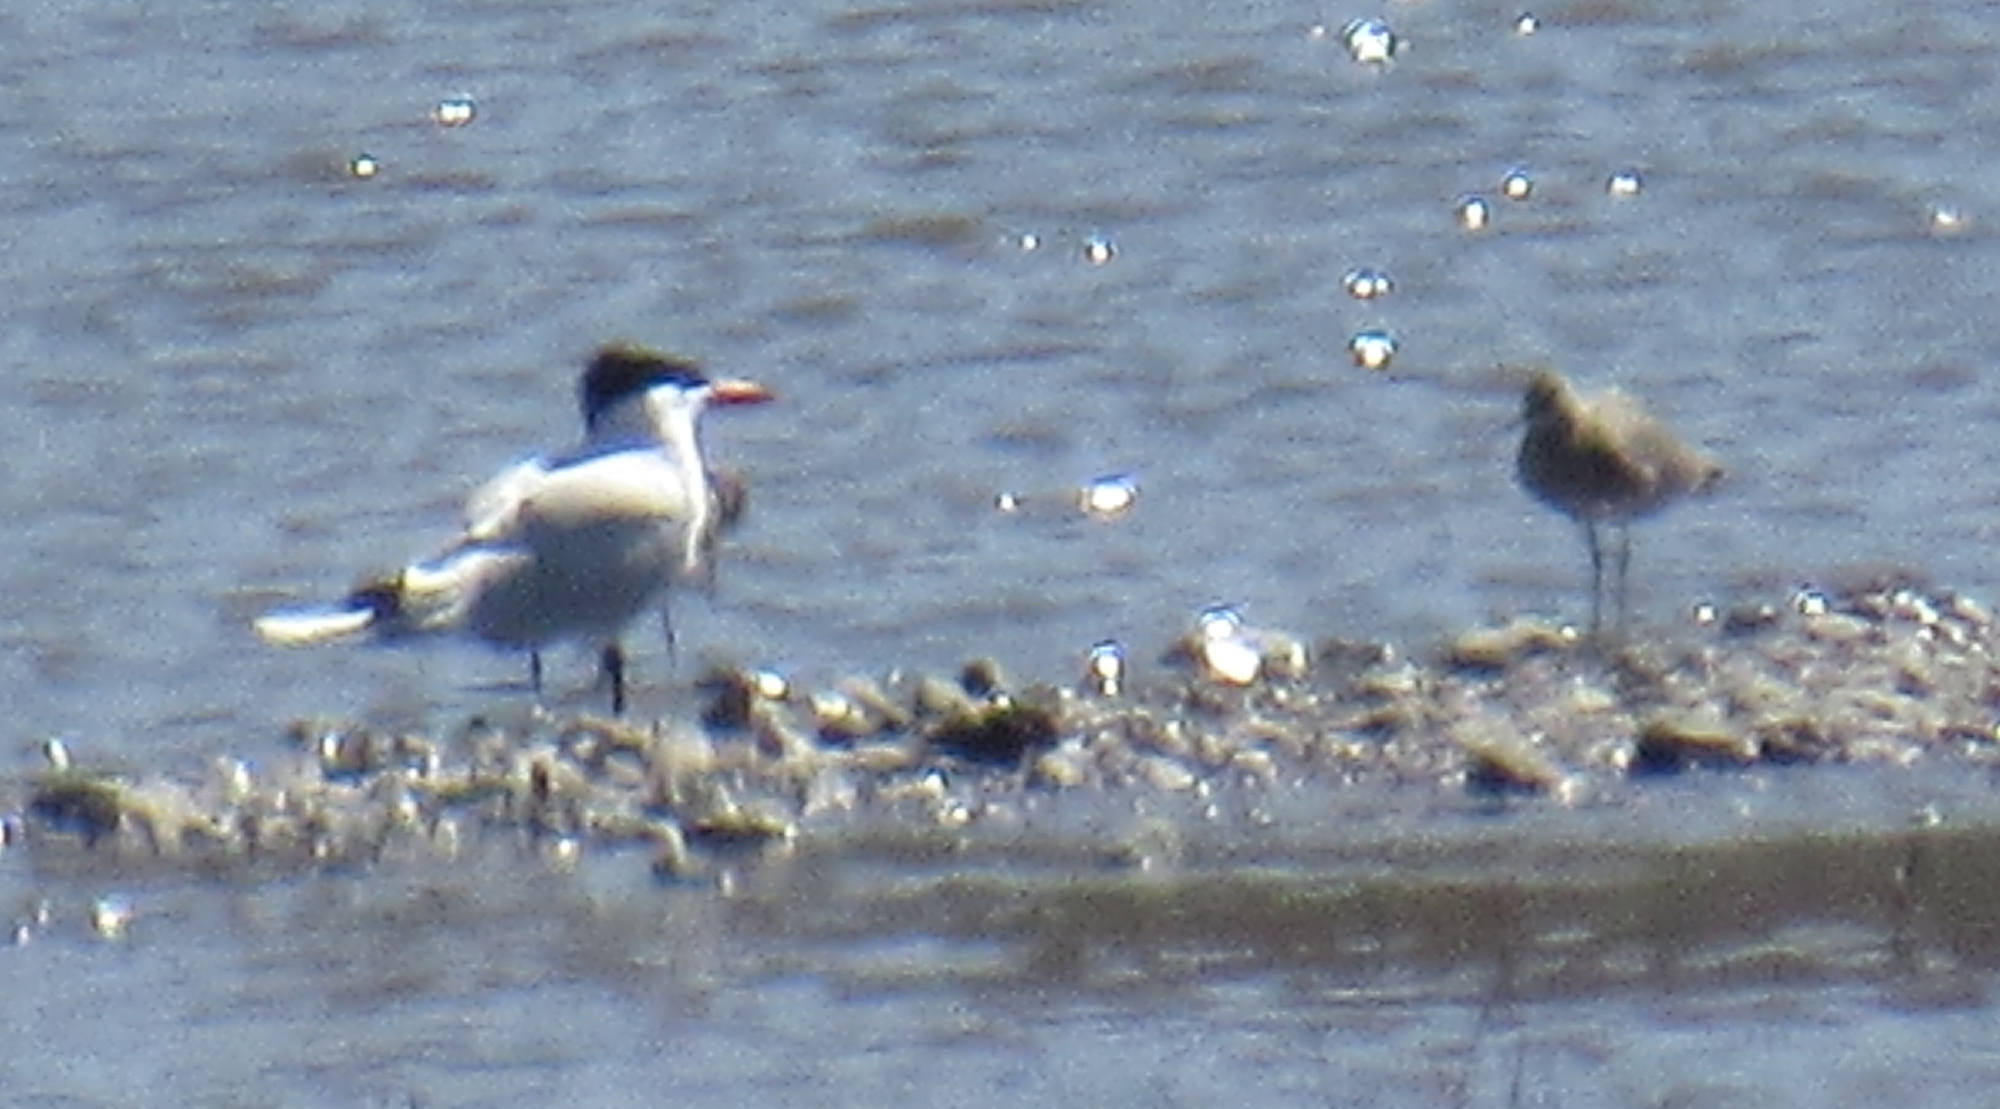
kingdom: Animalia
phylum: Chordata
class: Aves
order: Charadriiformes
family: Laridae
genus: Hydroprogne
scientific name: Hydroprogne caspia
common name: Caspian tern
